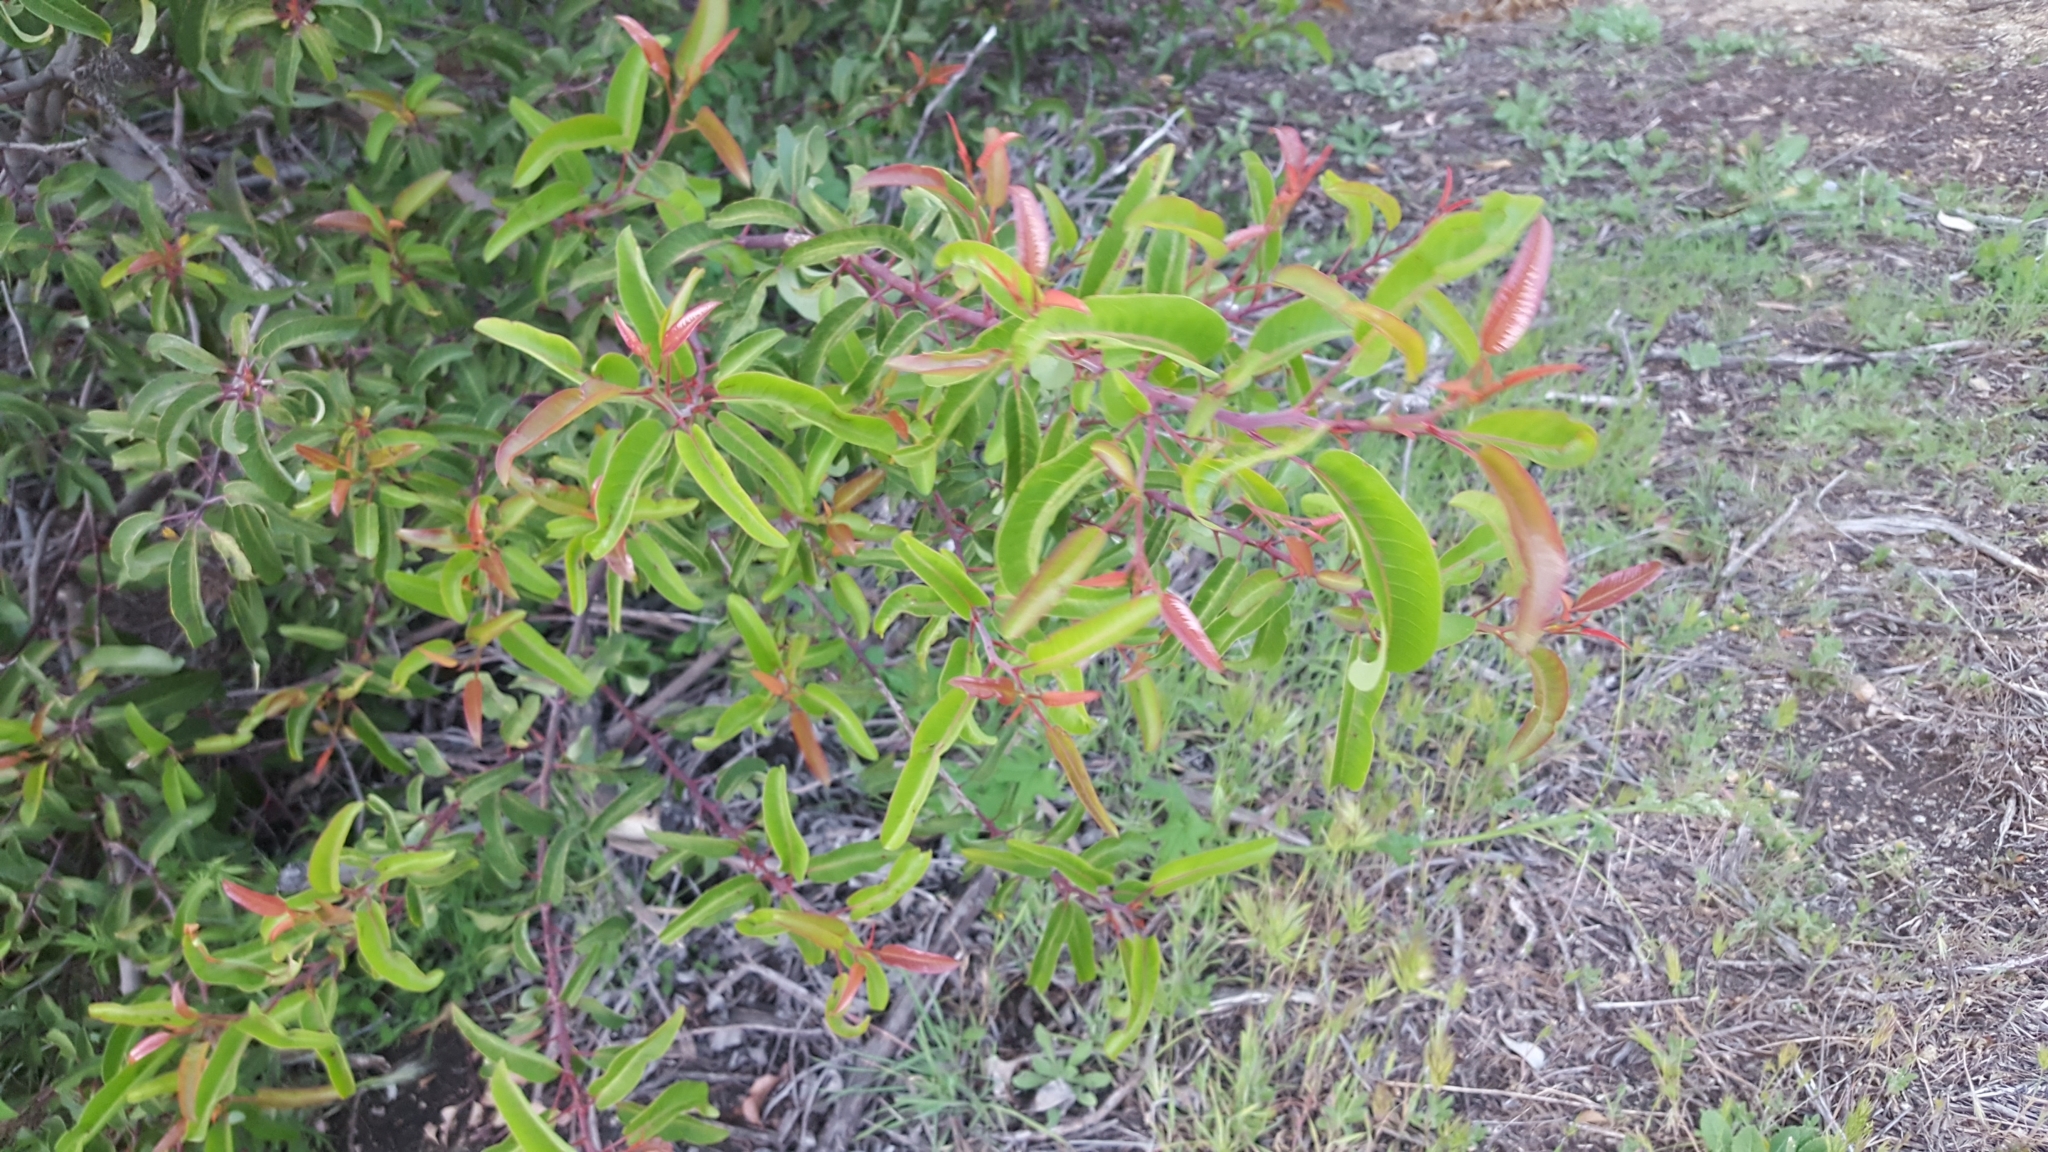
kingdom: Plantae
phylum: Tracheophyta
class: Magnoliopsida
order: Sapindales
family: Anacardiaceae
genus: Malosma
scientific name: Malosma laurina
